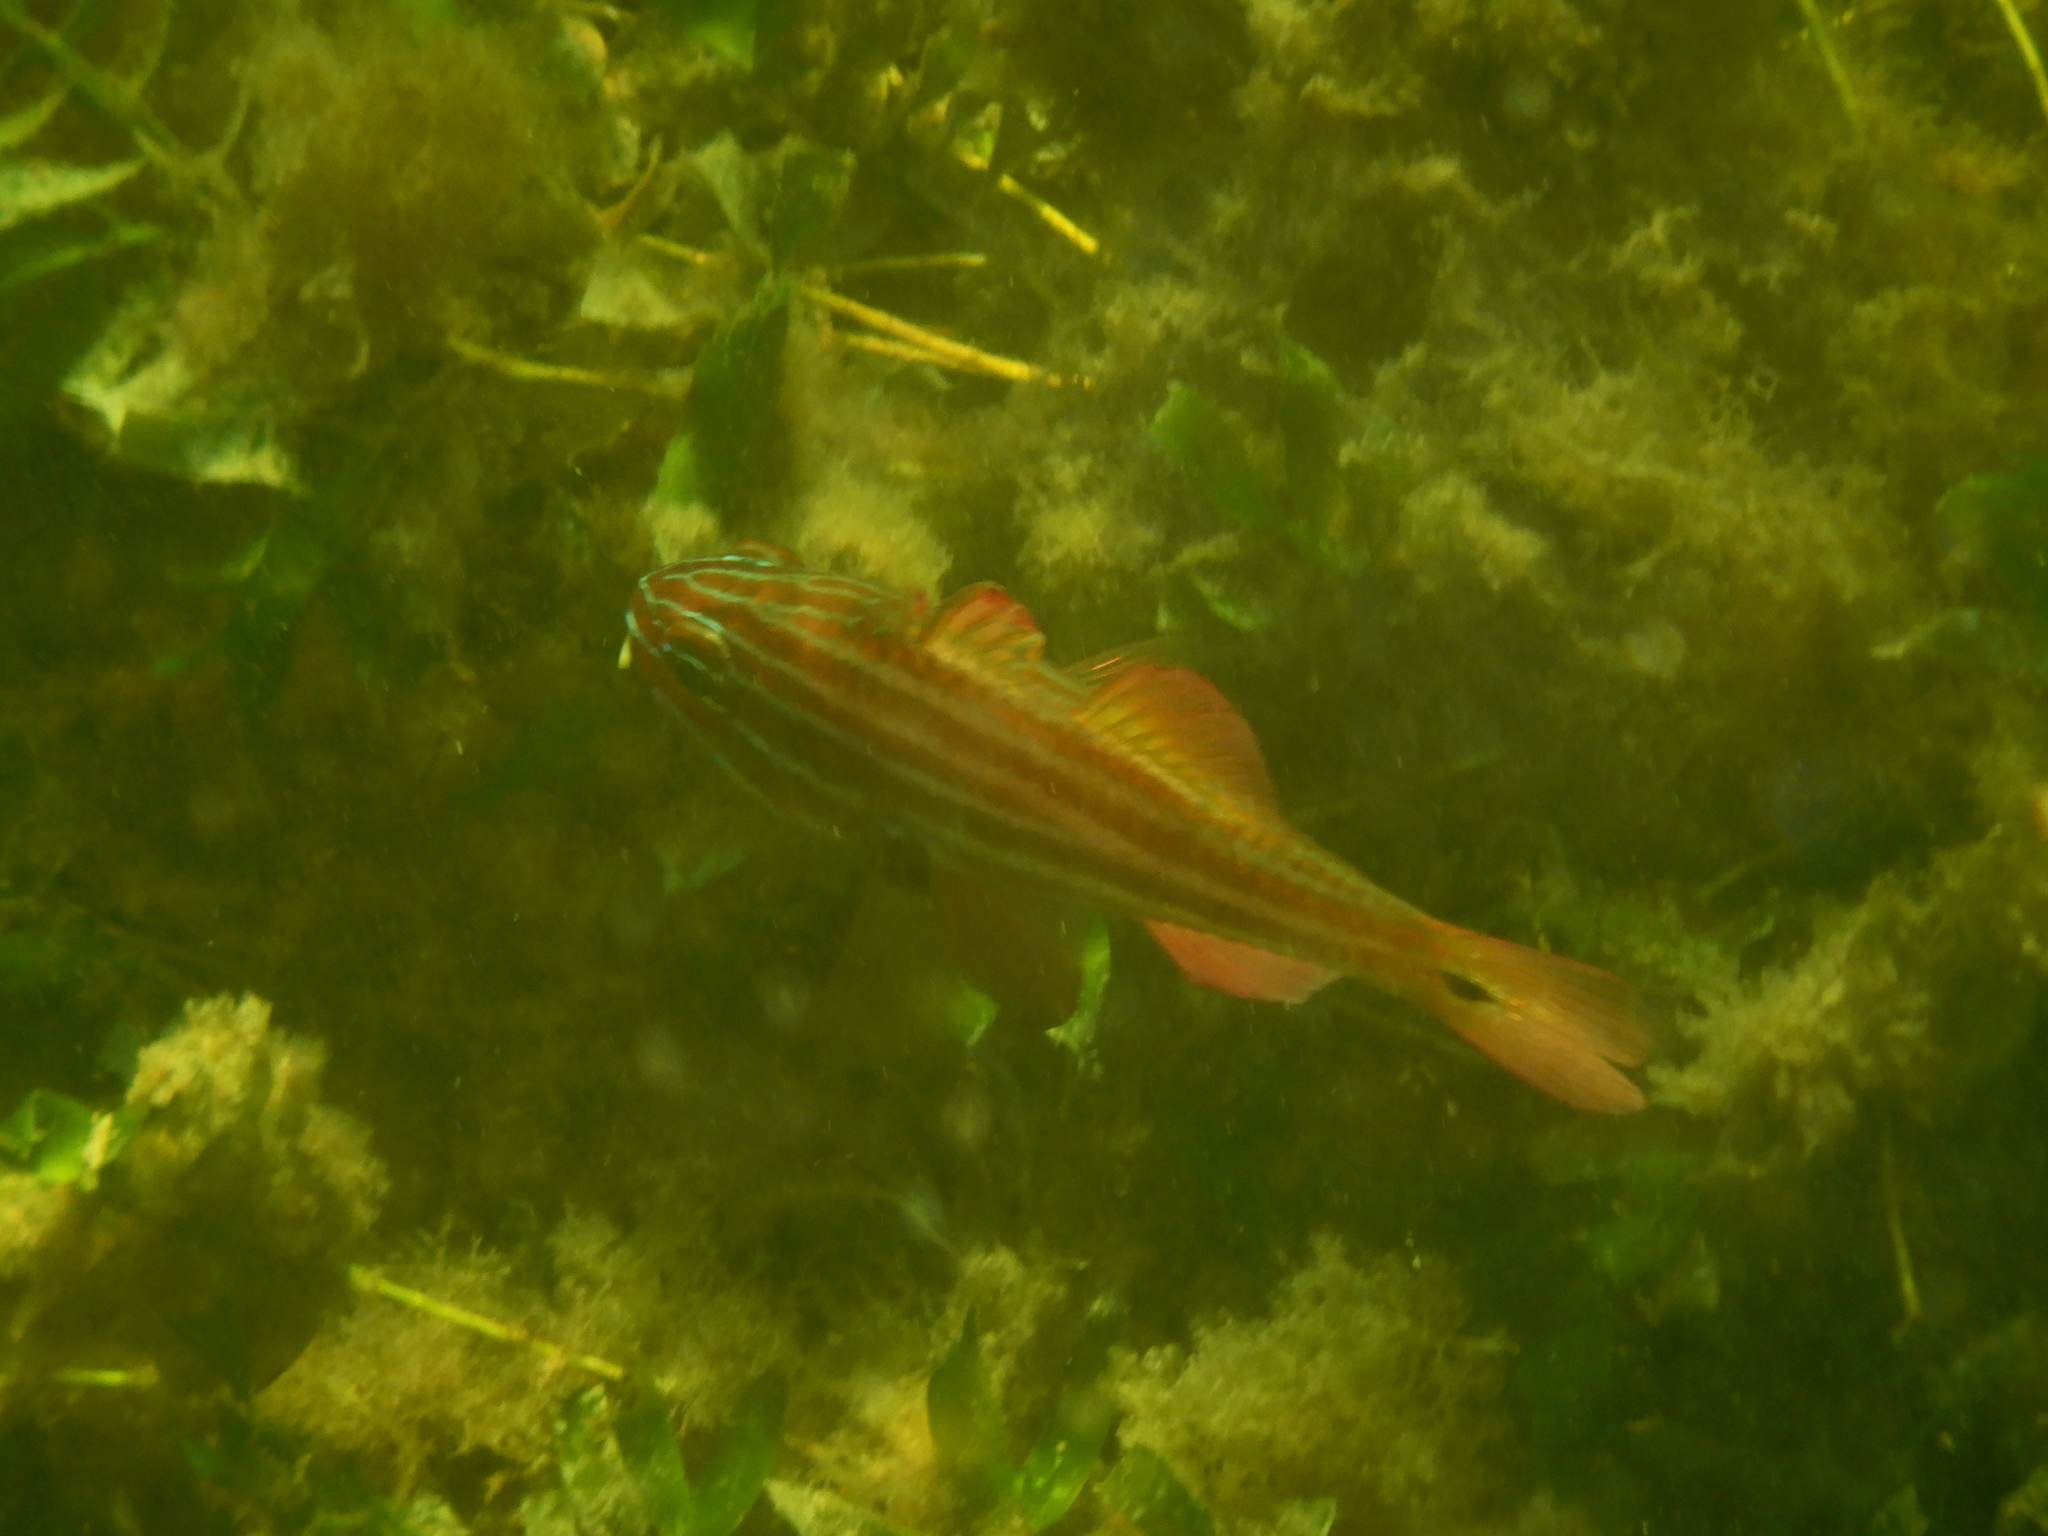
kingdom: Animalia
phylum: Chordata
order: Perciformes
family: Apogonidae
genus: Ostorhinchus
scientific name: Ostorhinchus victoriae
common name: Black-axillary soldier-fish
